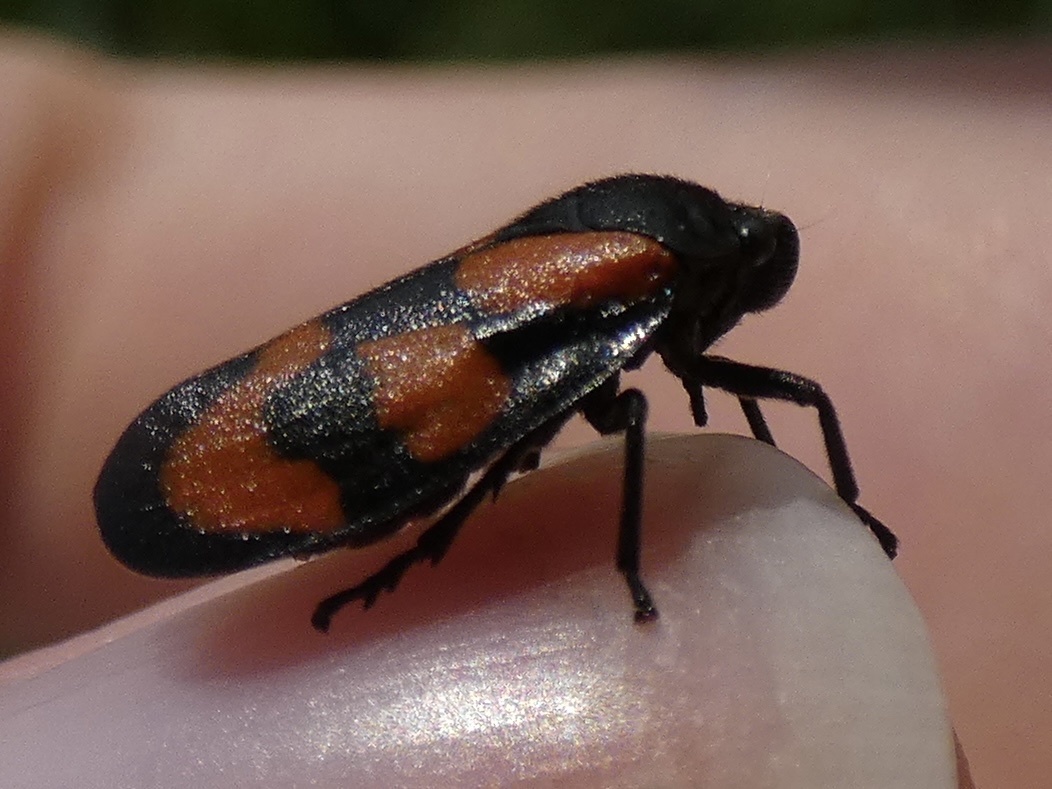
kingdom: Animalia
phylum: Arthropoda
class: Insecta
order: Hemiptera
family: Cercopidae
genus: Cercopis
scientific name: Cercopis vulnerata
